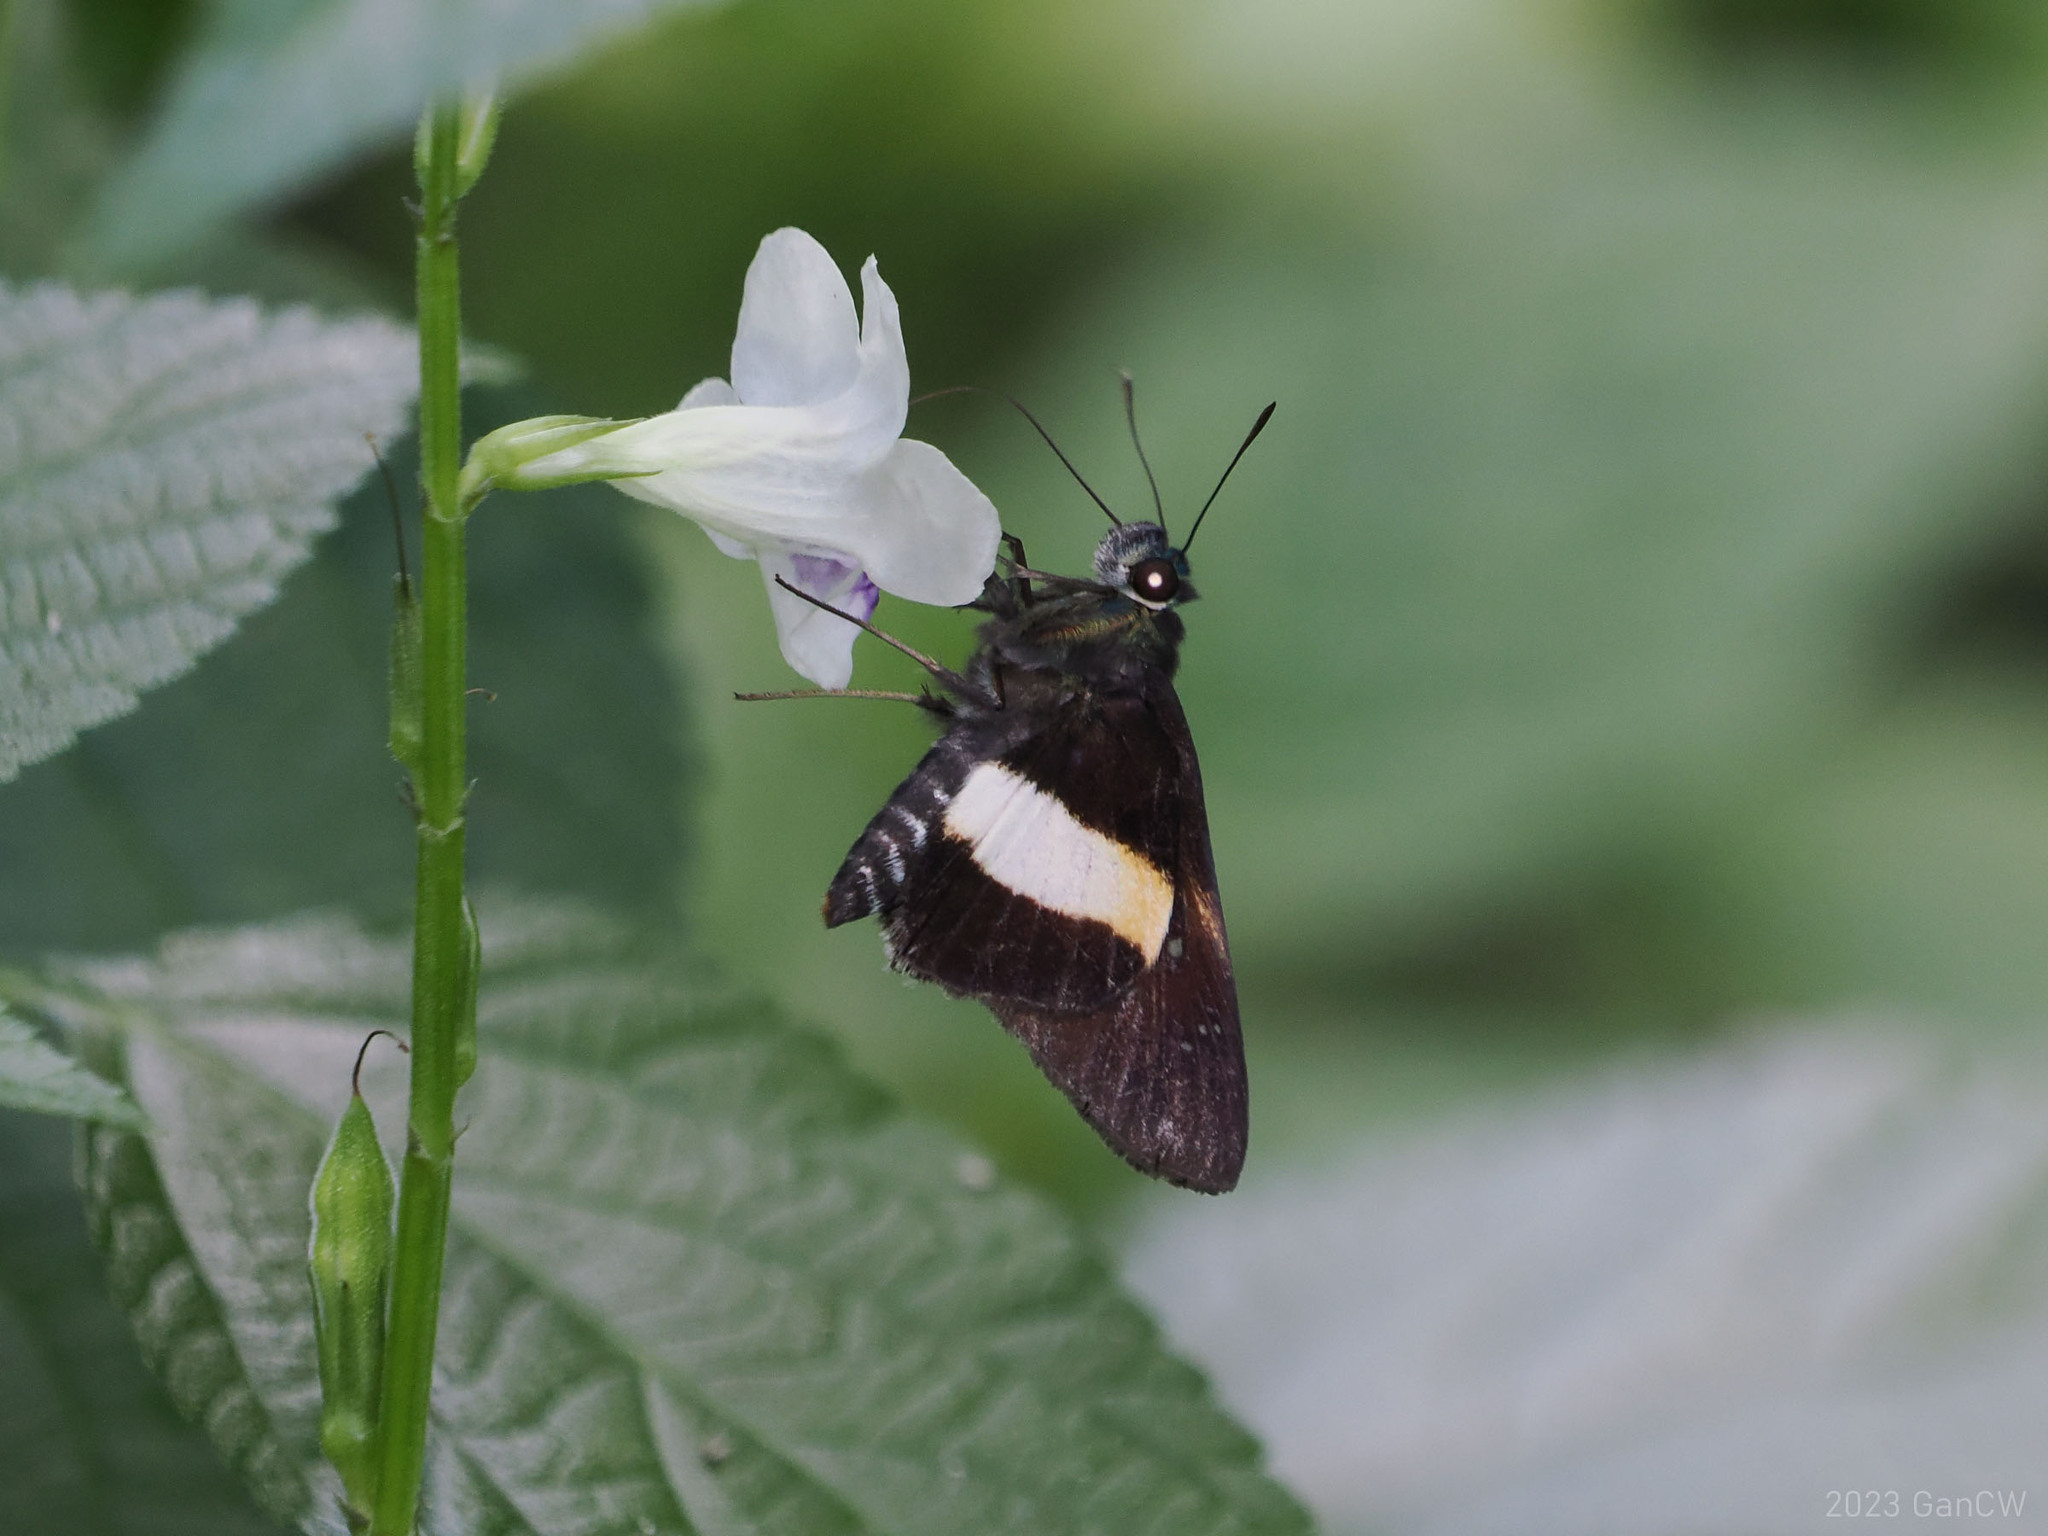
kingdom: Animalia
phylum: Arthropoda
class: Insecta
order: Lepidoptera
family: Hesperiidae
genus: Acerbas
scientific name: Acerbas duris
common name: Banded palmer
